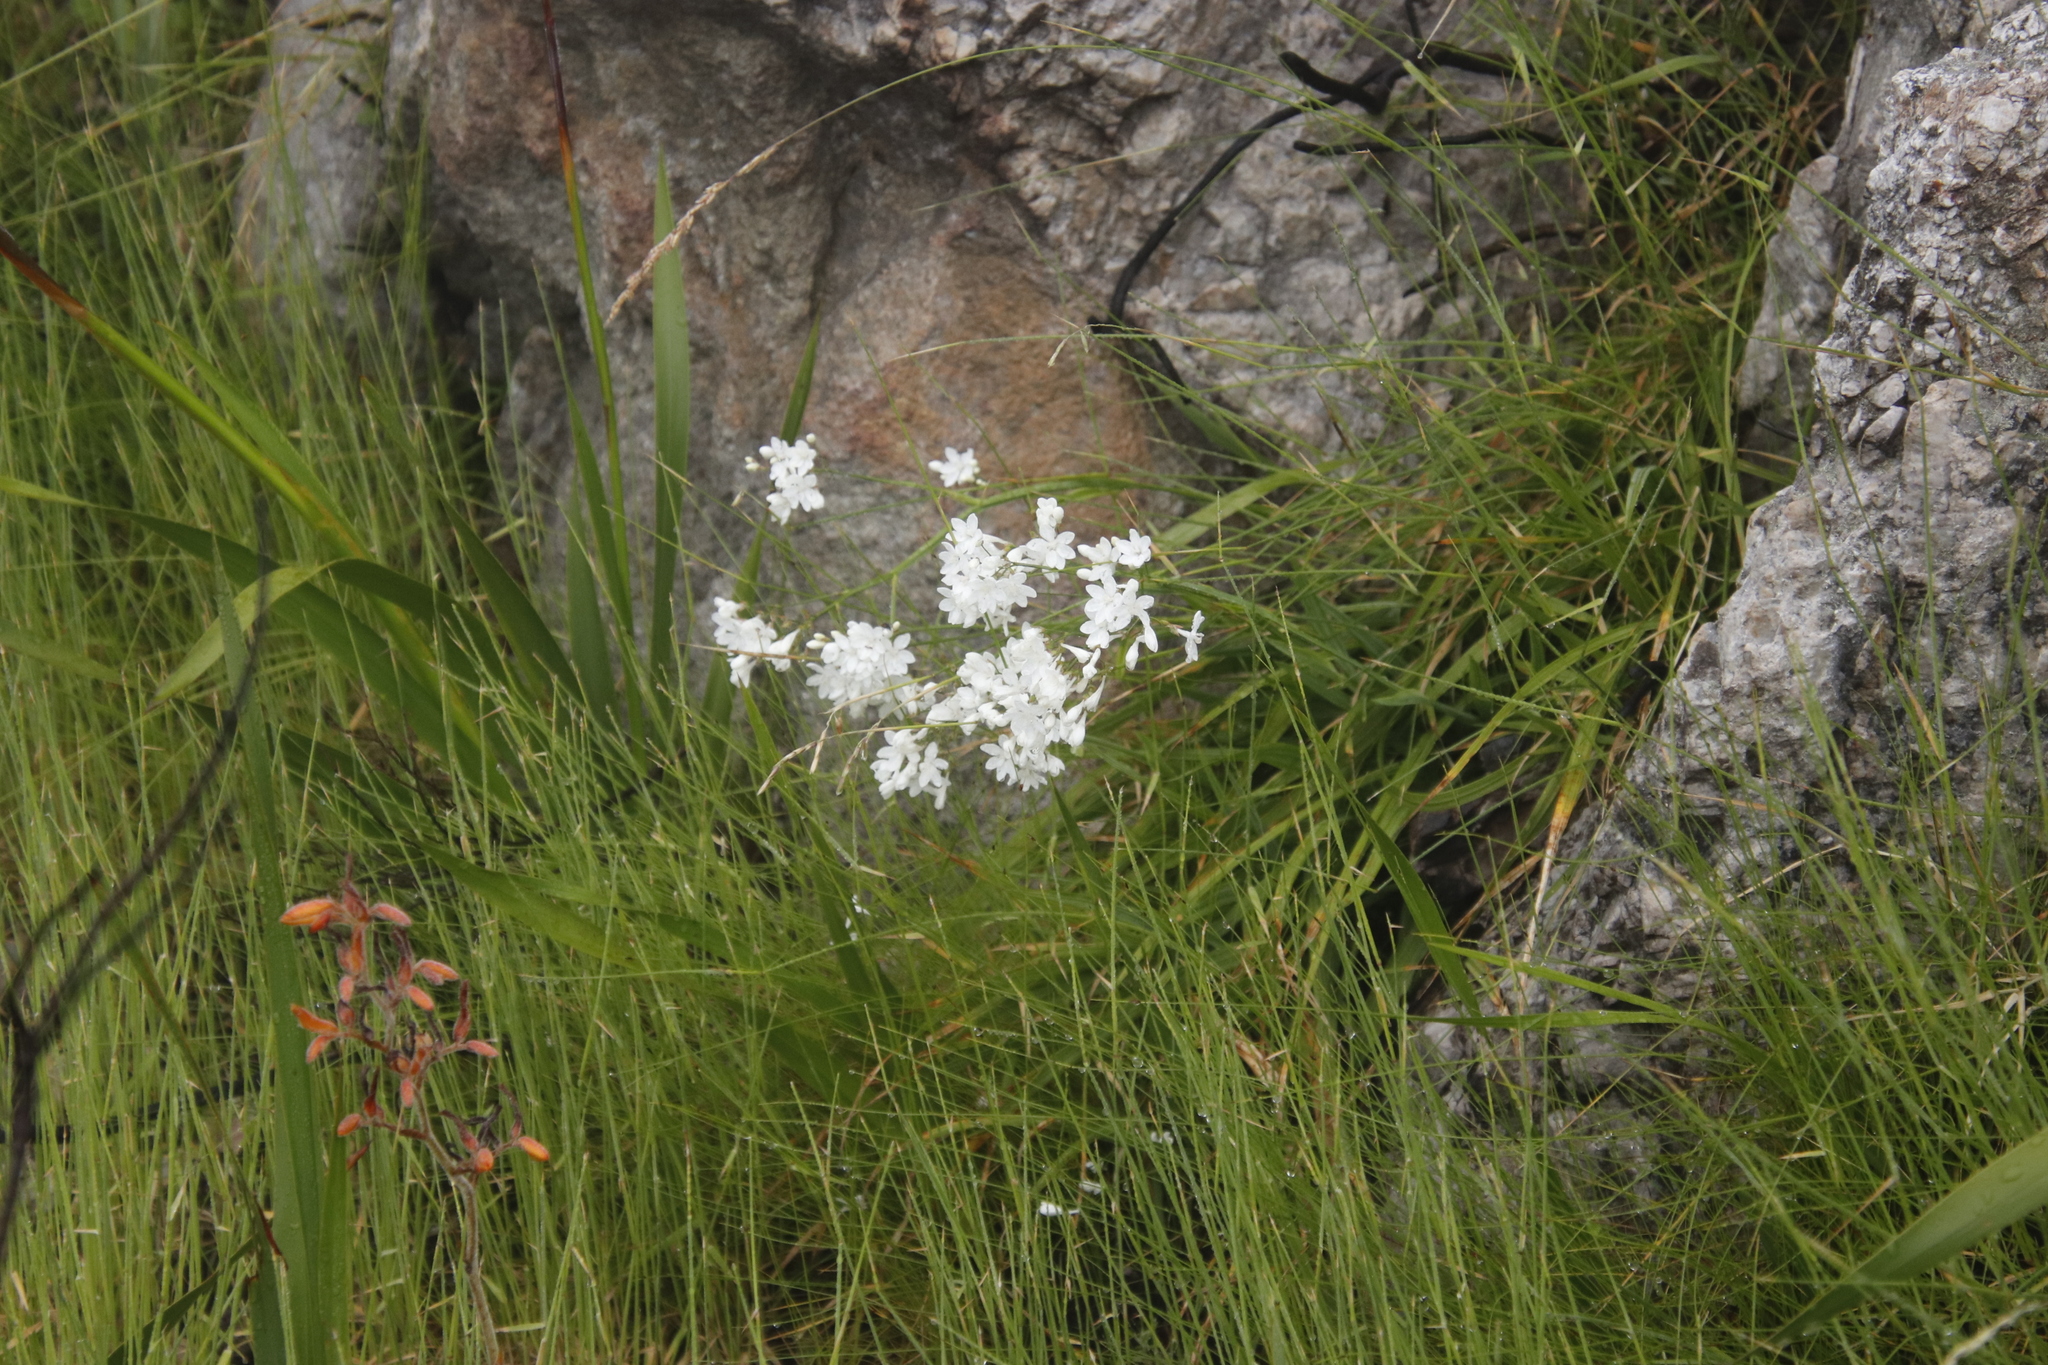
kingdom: Plantae
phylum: Tracheophyta
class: Liliopsida
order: Asparagales
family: Iridaceae
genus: Schizorhiza
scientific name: Schizorhiza neglecta
